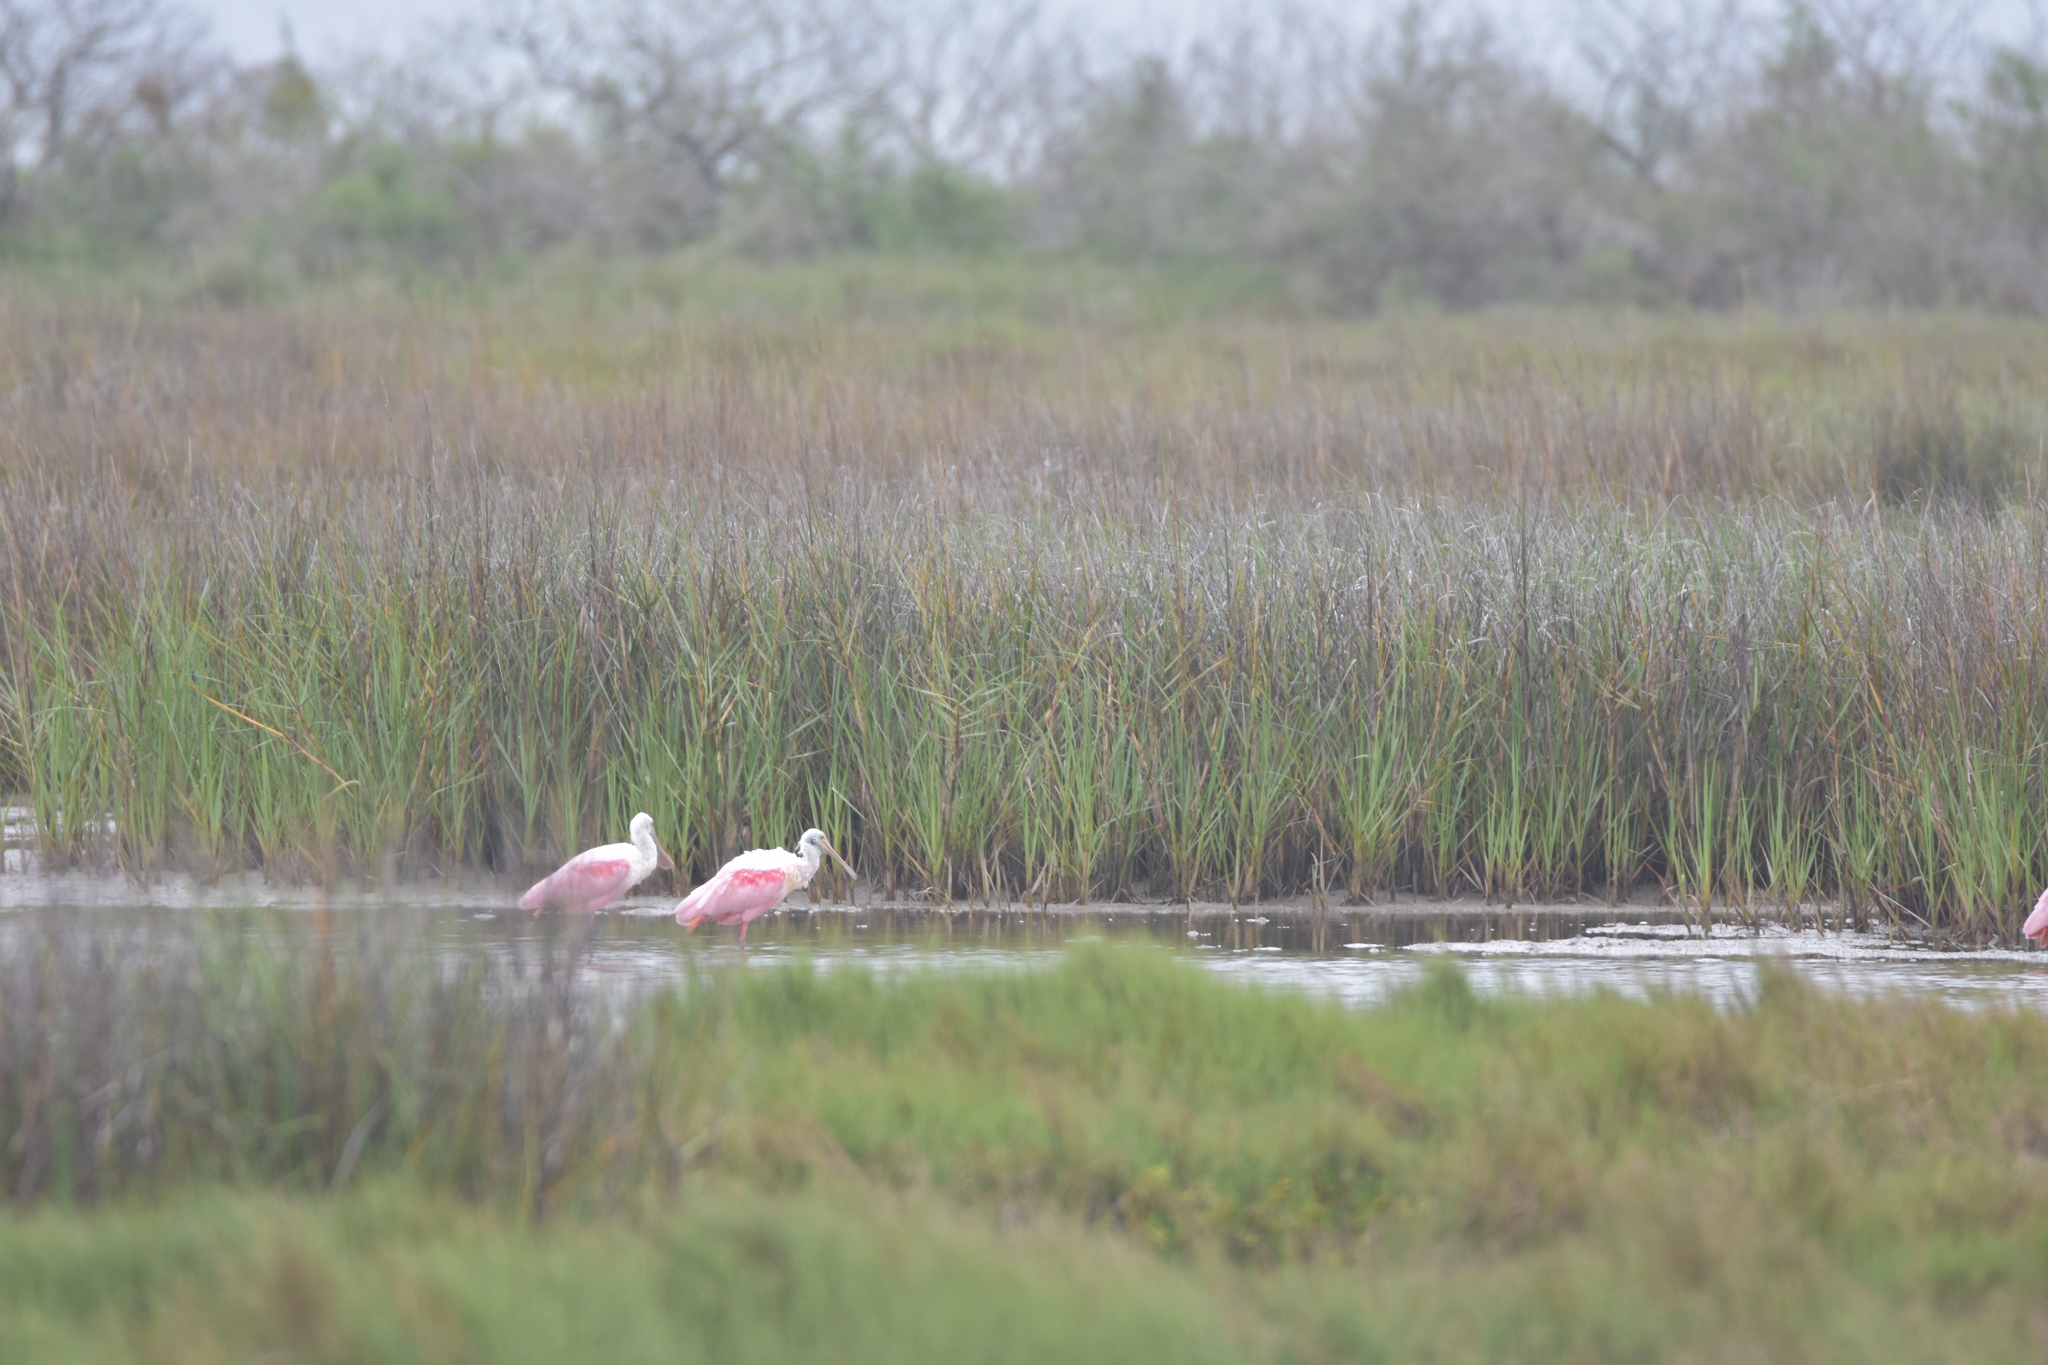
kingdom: Animalia
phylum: Chordata
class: Aves
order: Pelecaniformes
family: Threskiornithidae
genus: Platalea
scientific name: Platalea ajaja
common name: Roseate spoonbill
